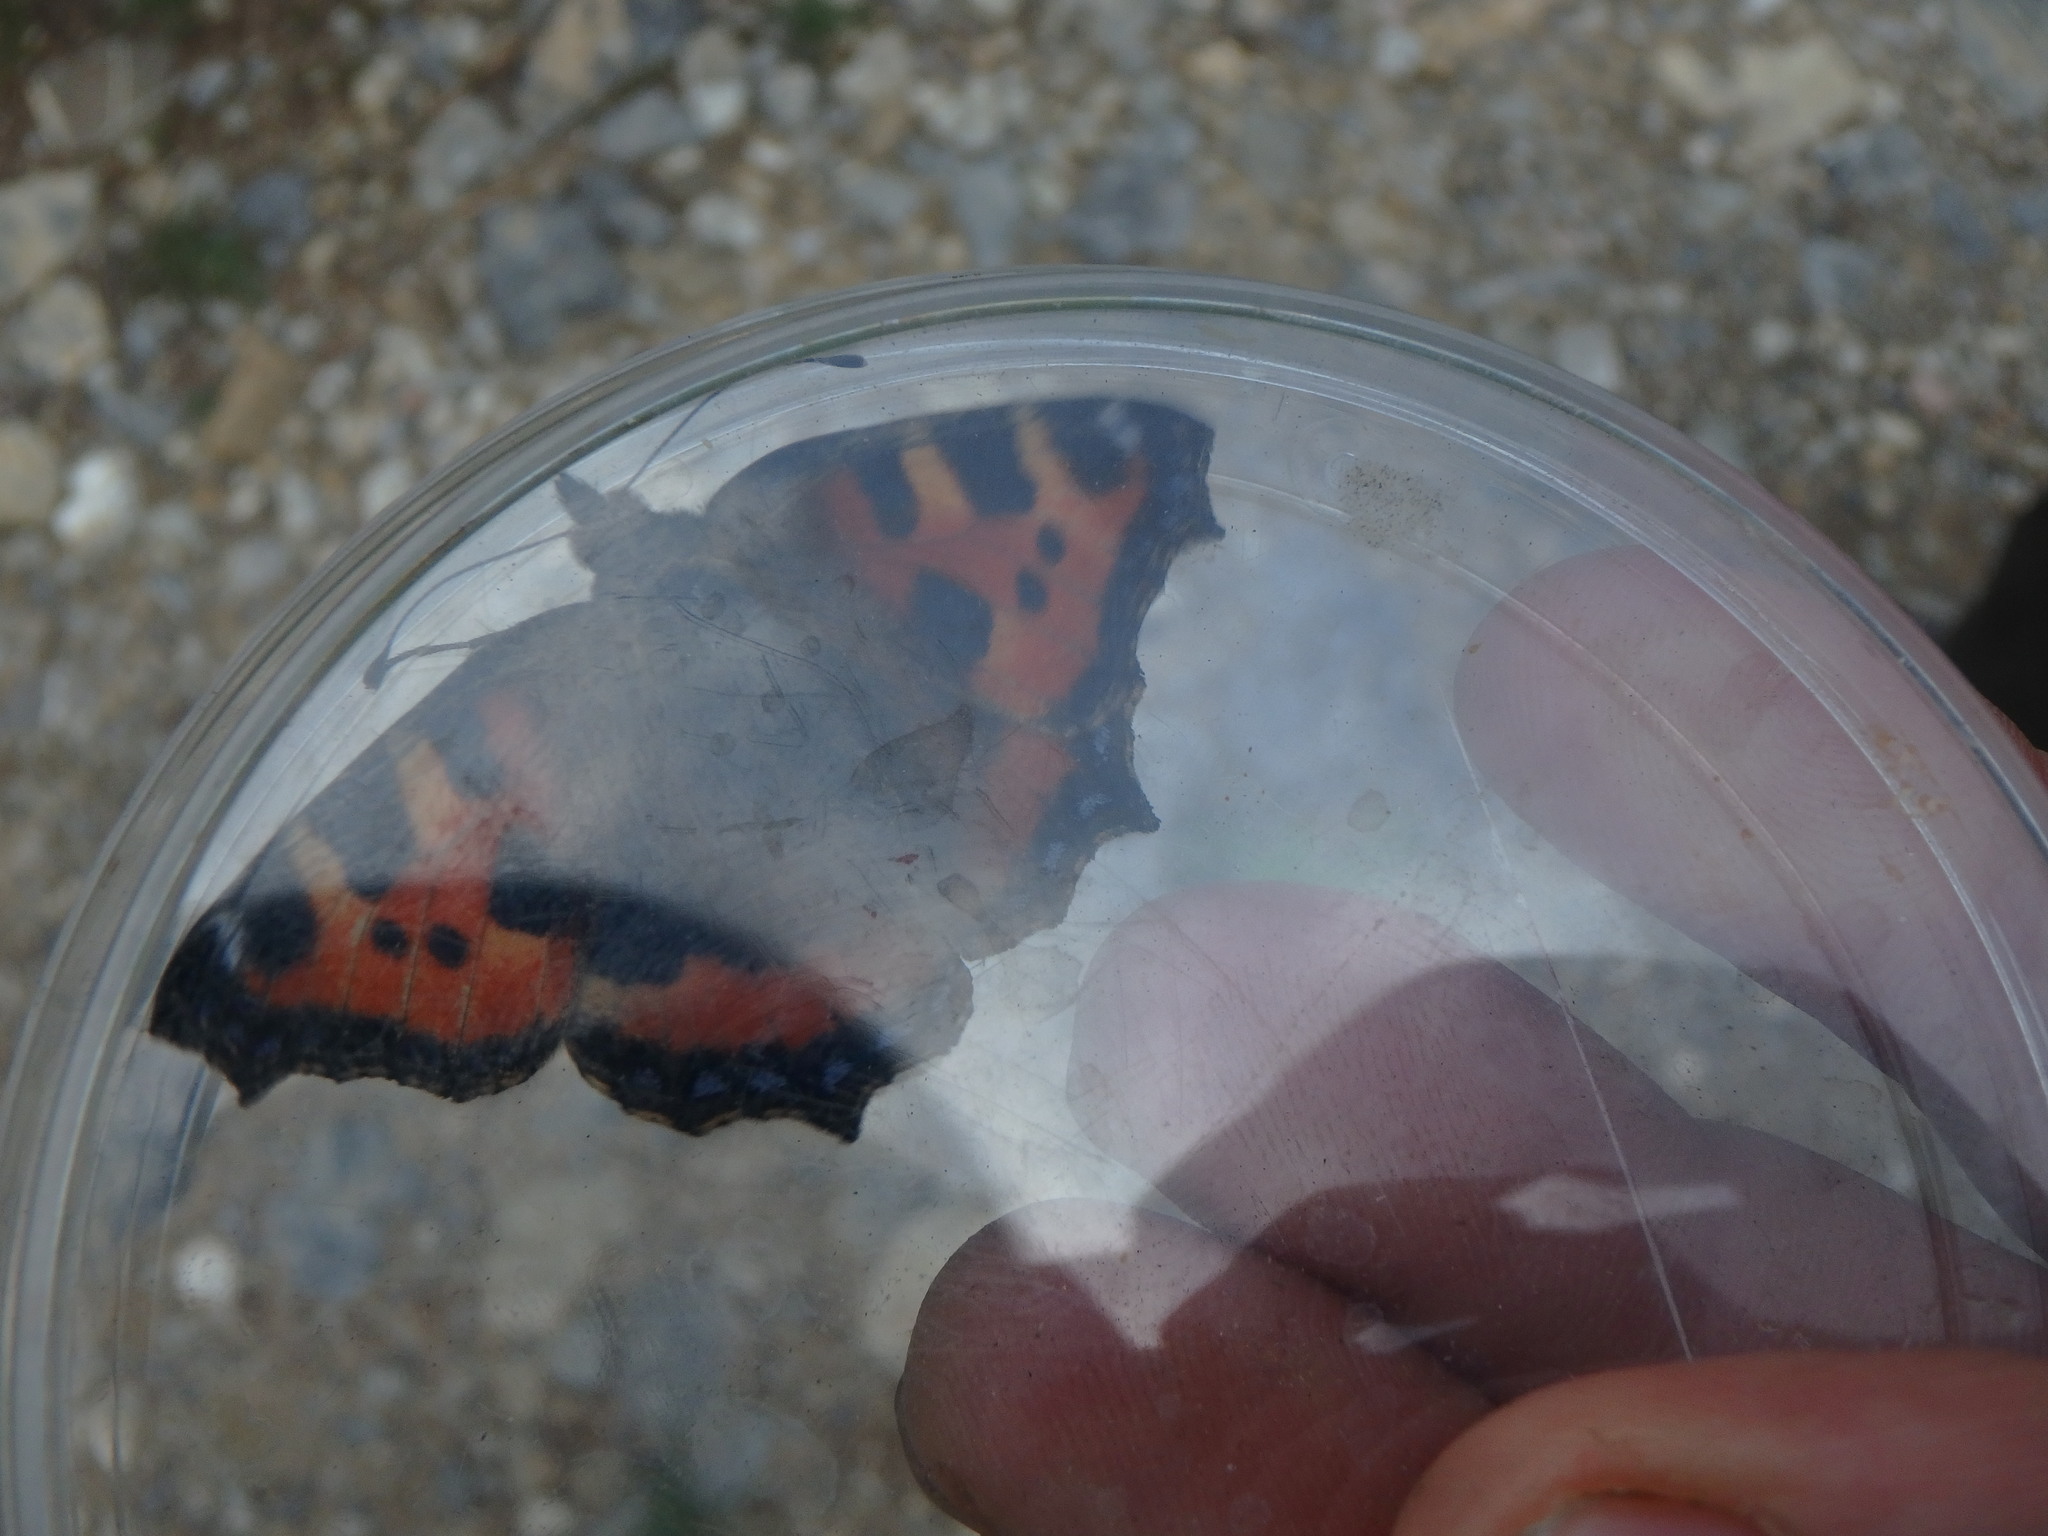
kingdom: Animalia
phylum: Arthropoda
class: Insecta
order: Lepidoptera
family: Nymphalidae
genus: Aglais
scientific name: Aglais urticae
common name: Small tortoiseshell
